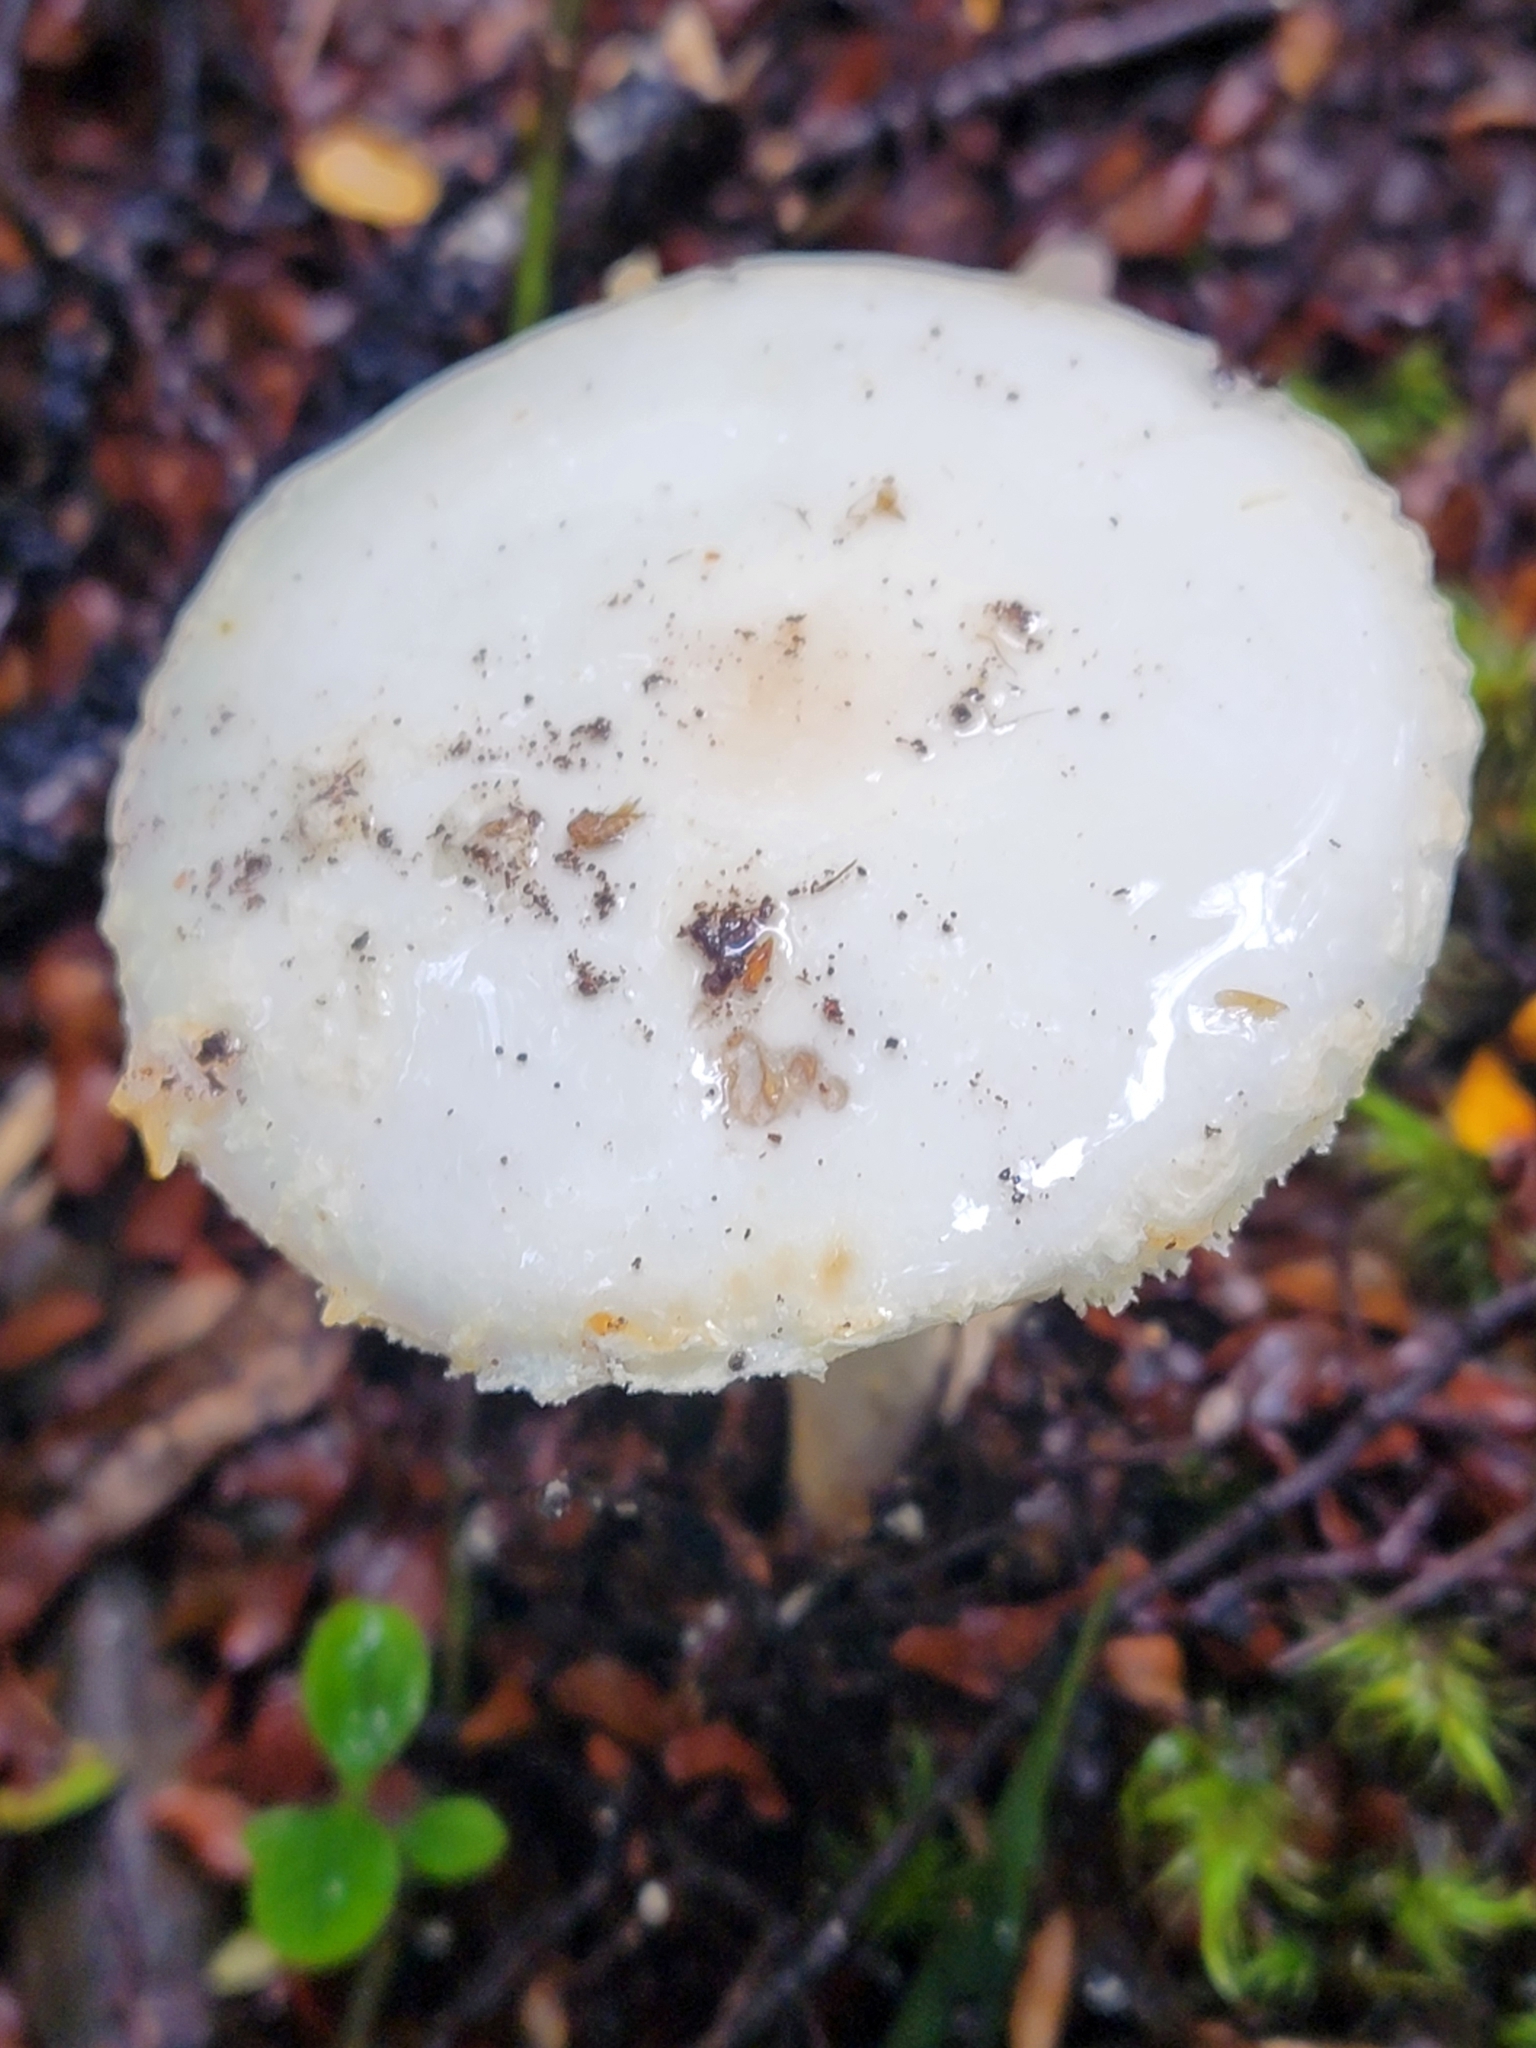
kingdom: Fungi
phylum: Basidiomycota
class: Agaricomycetes
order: Agaricales
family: Amanitaceae
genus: Amanita
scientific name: Amanita mumura
